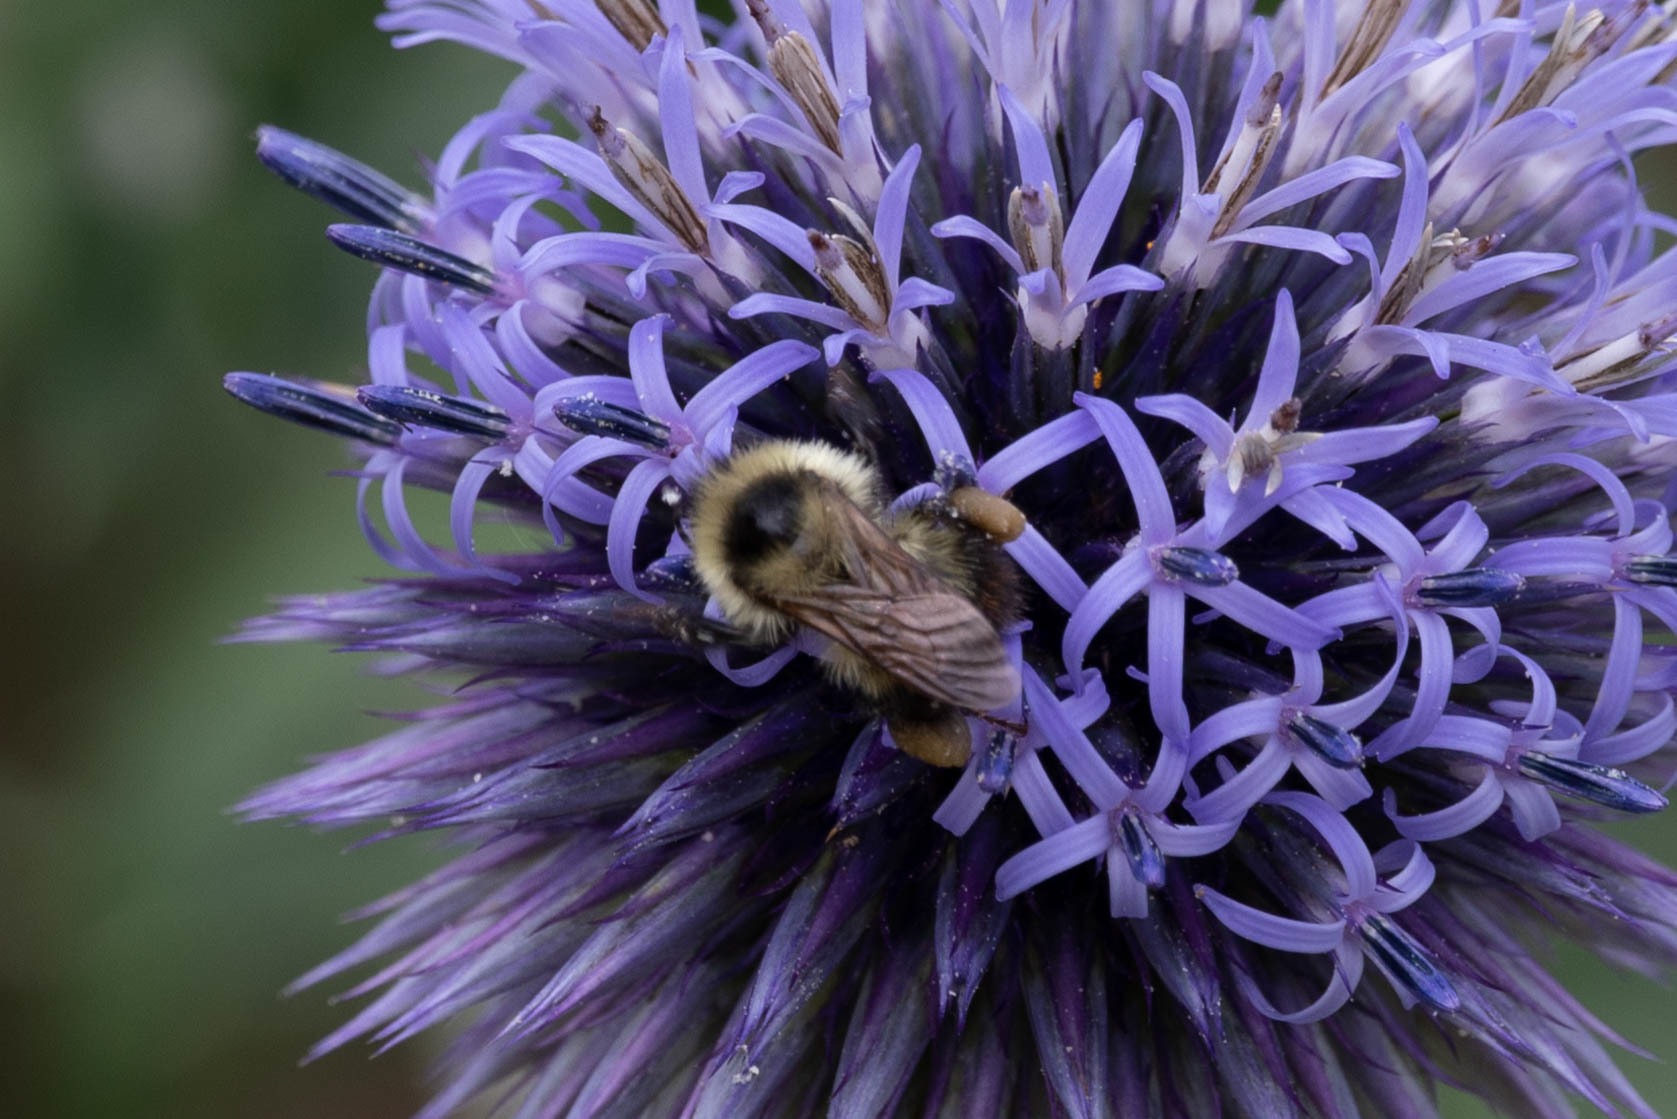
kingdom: Animalia
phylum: Arthropoda
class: Insecta
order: Hymenoptera
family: Apidae
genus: Bombus
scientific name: Bombus rufocinctus
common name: Red-belted bumble bee
